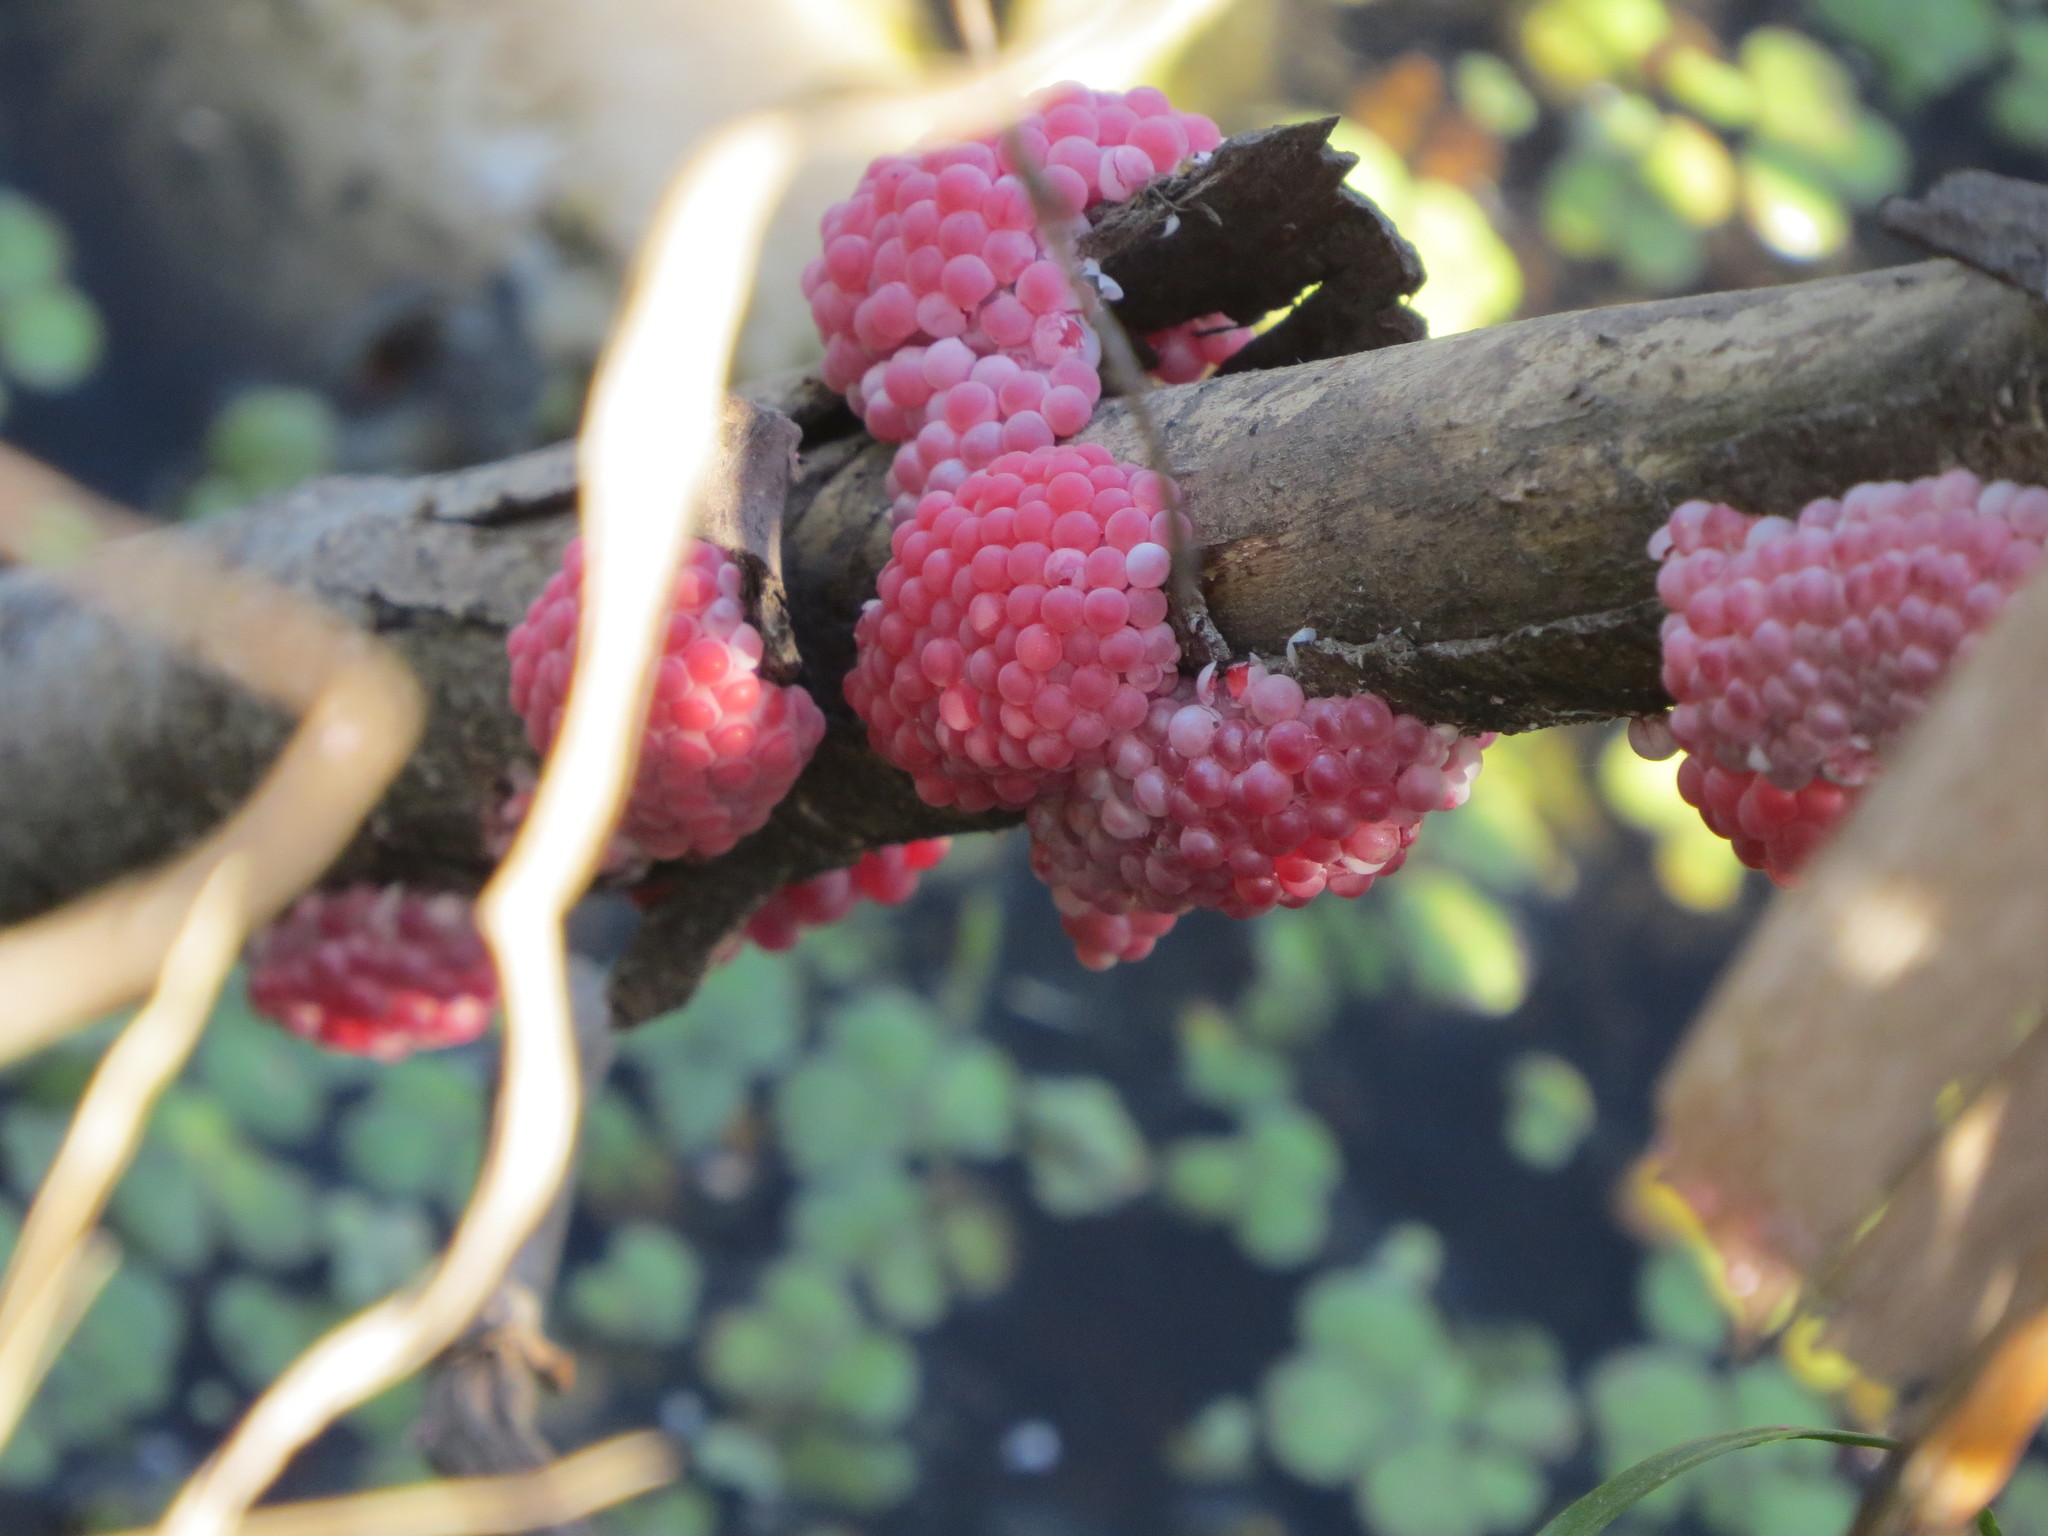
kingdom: Animalia
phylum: Mollusca
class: Gastropoda
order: Architaenioglossa
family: Ampullariidae
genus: Pomacea
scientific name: Pomacea canaliculata
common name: Channeled applesnail
